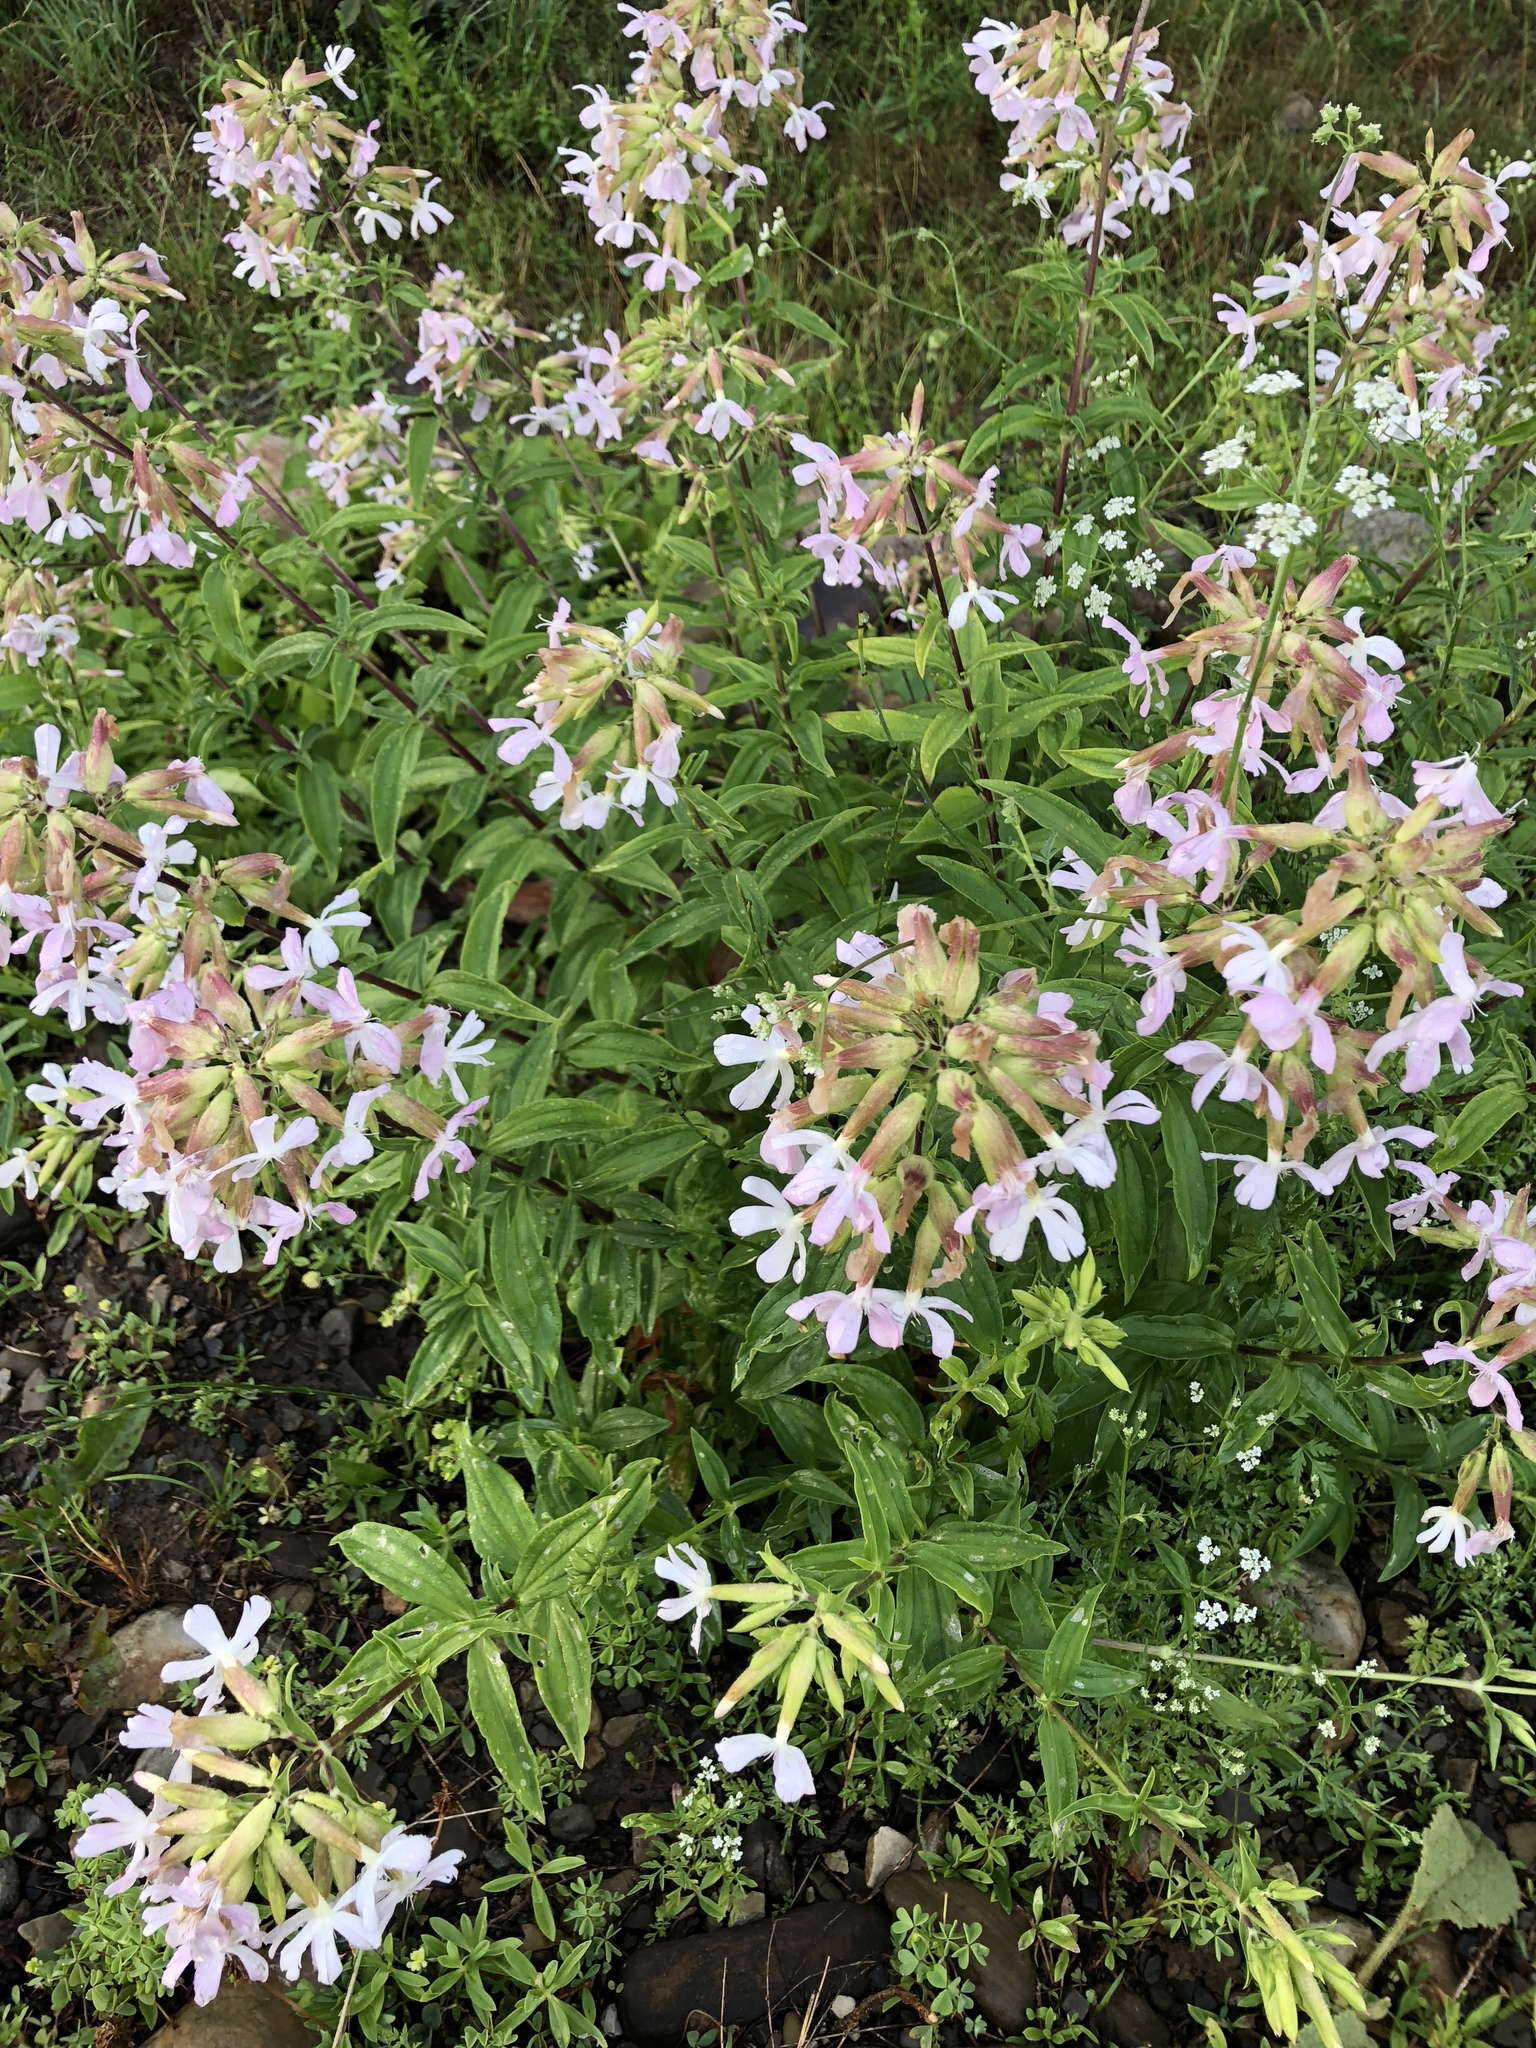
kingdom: Plantae
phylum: Tracheophyta
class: Magnoliopsida
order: Caryophyllales
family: Caryophyllaceae
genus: Saponaria
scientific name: Saponaria officinalis
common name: Soapwort
